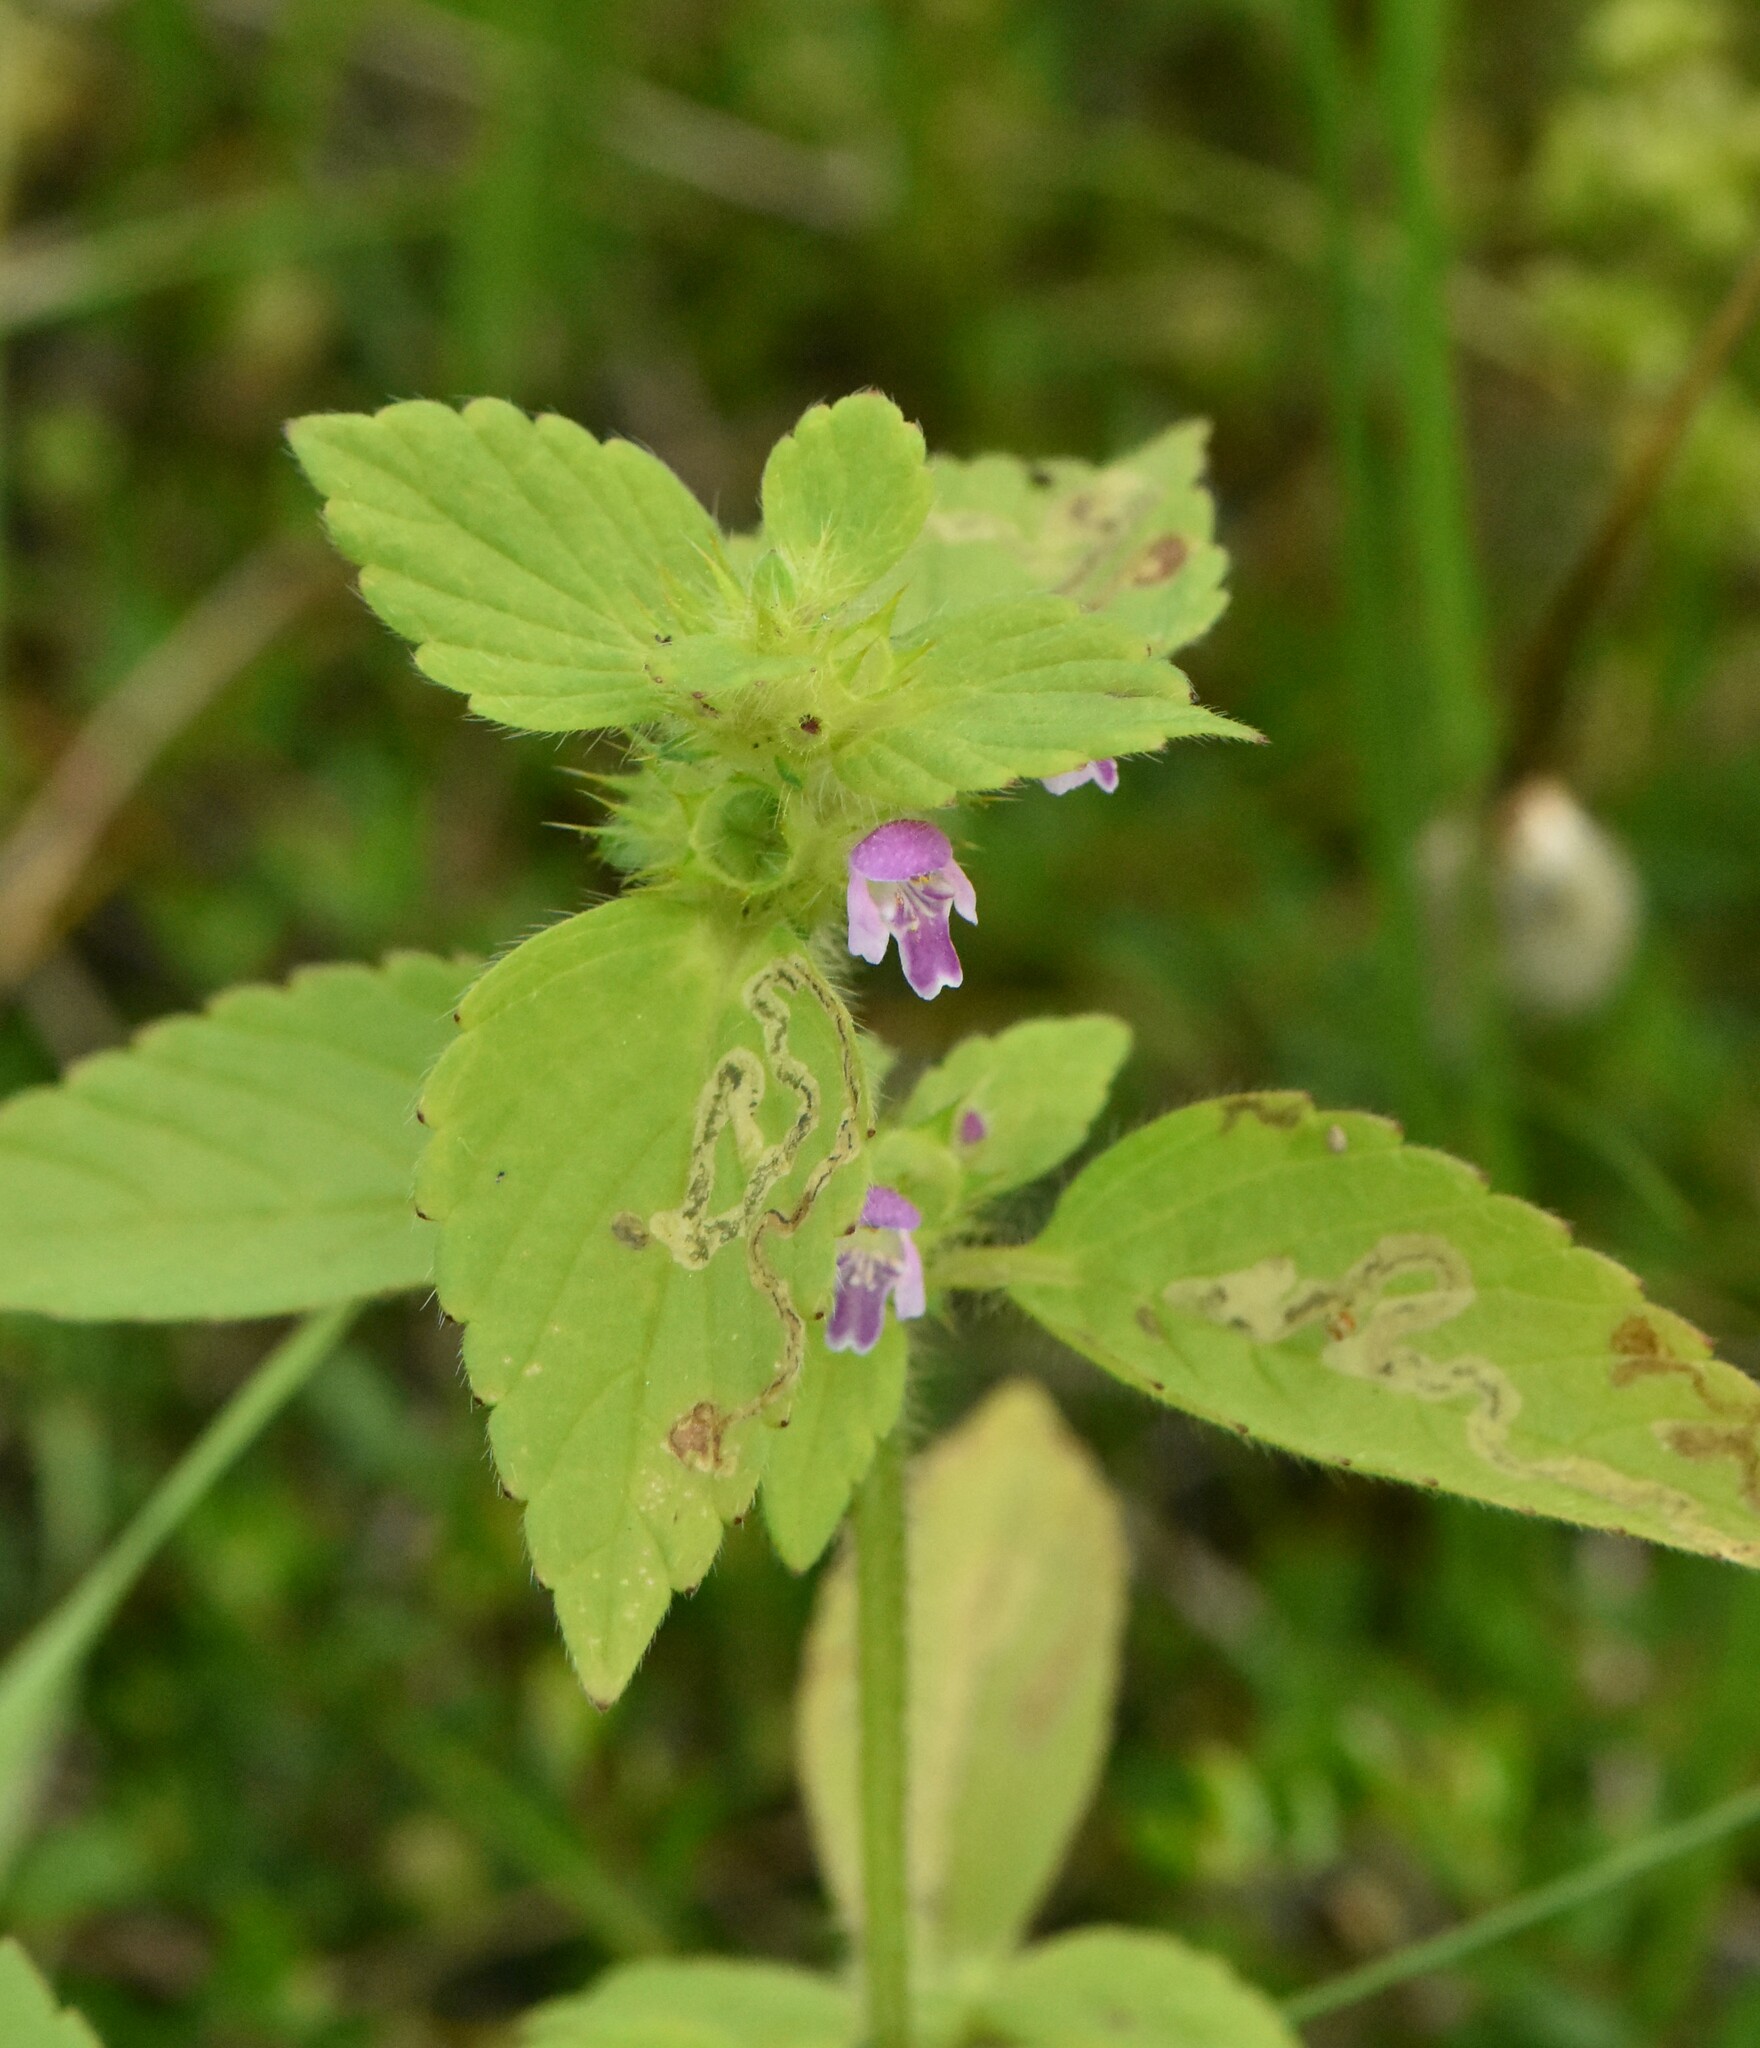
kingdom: Plantae
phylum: Tracheophyta
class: Magnoliopsida
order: Lamiales
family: Lamiaceae
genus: Galeopsis
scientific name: Galeopsis bifida
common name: Bifid hemp-nettle
